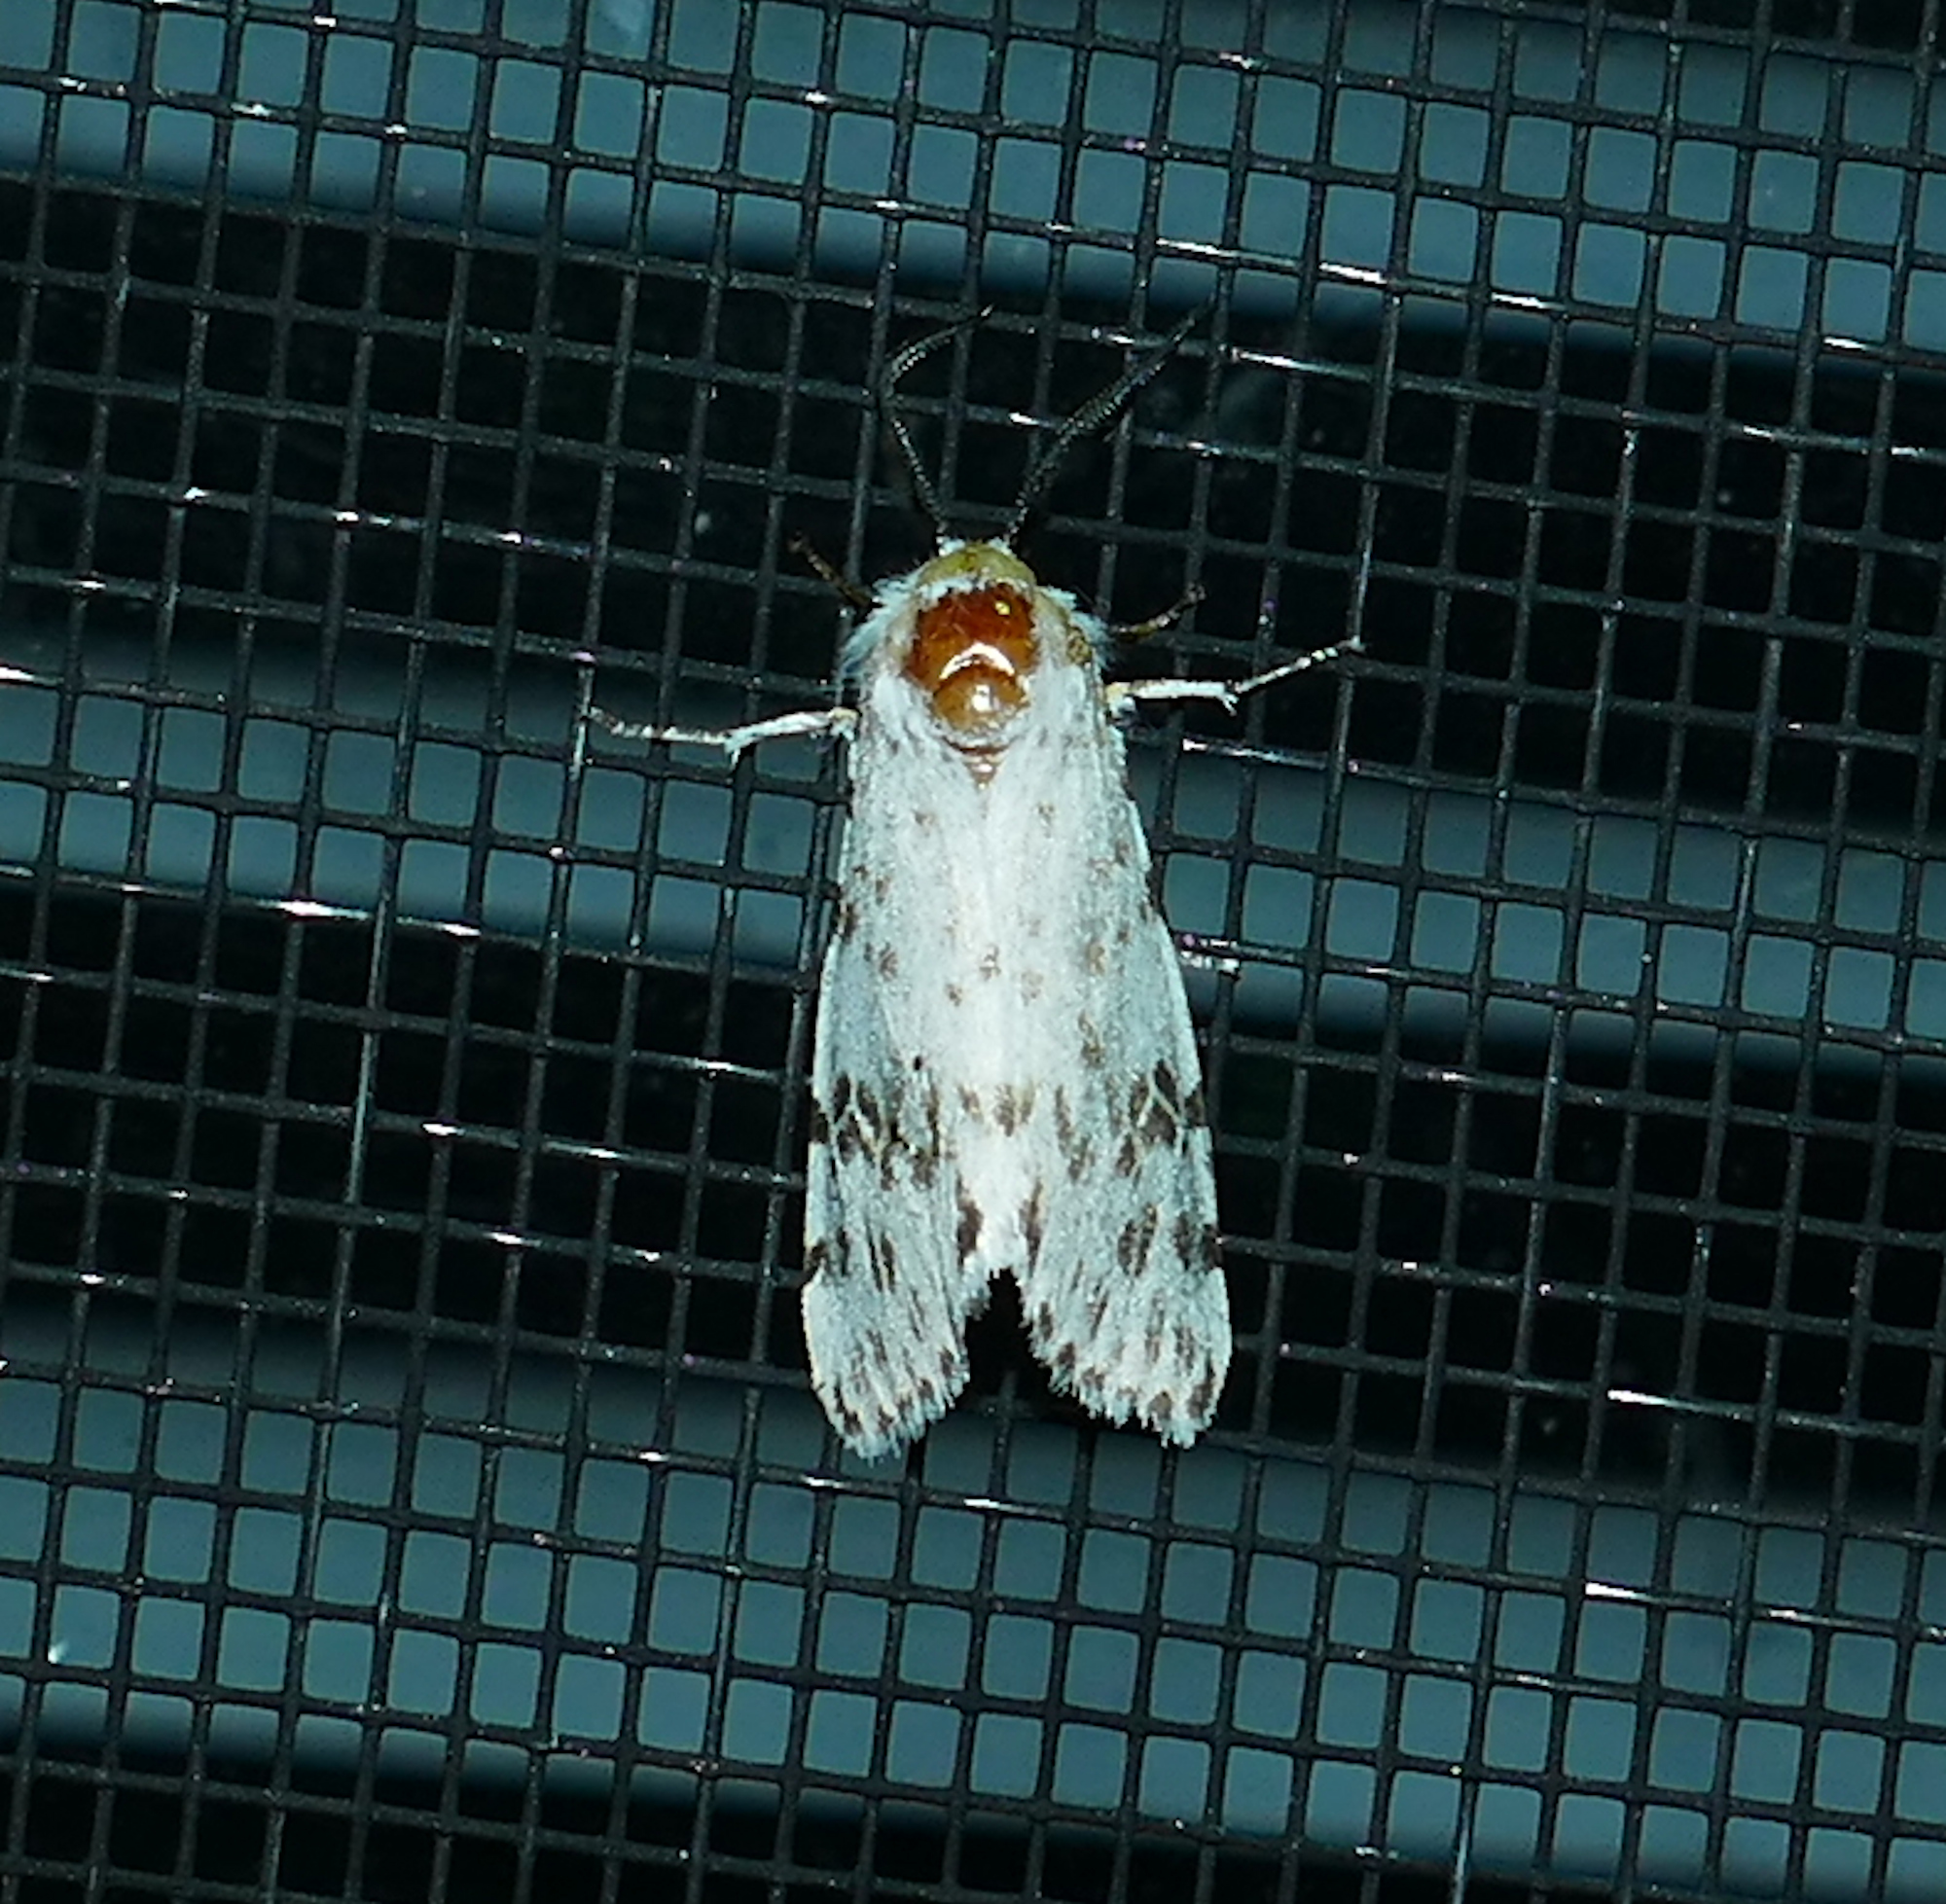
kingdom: Animalia
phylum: Arthropoda
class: Insecta
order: Lepidoptera
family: Erebidae
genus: Hyphantria
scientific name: Hyphantria cunea
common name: American white moth
